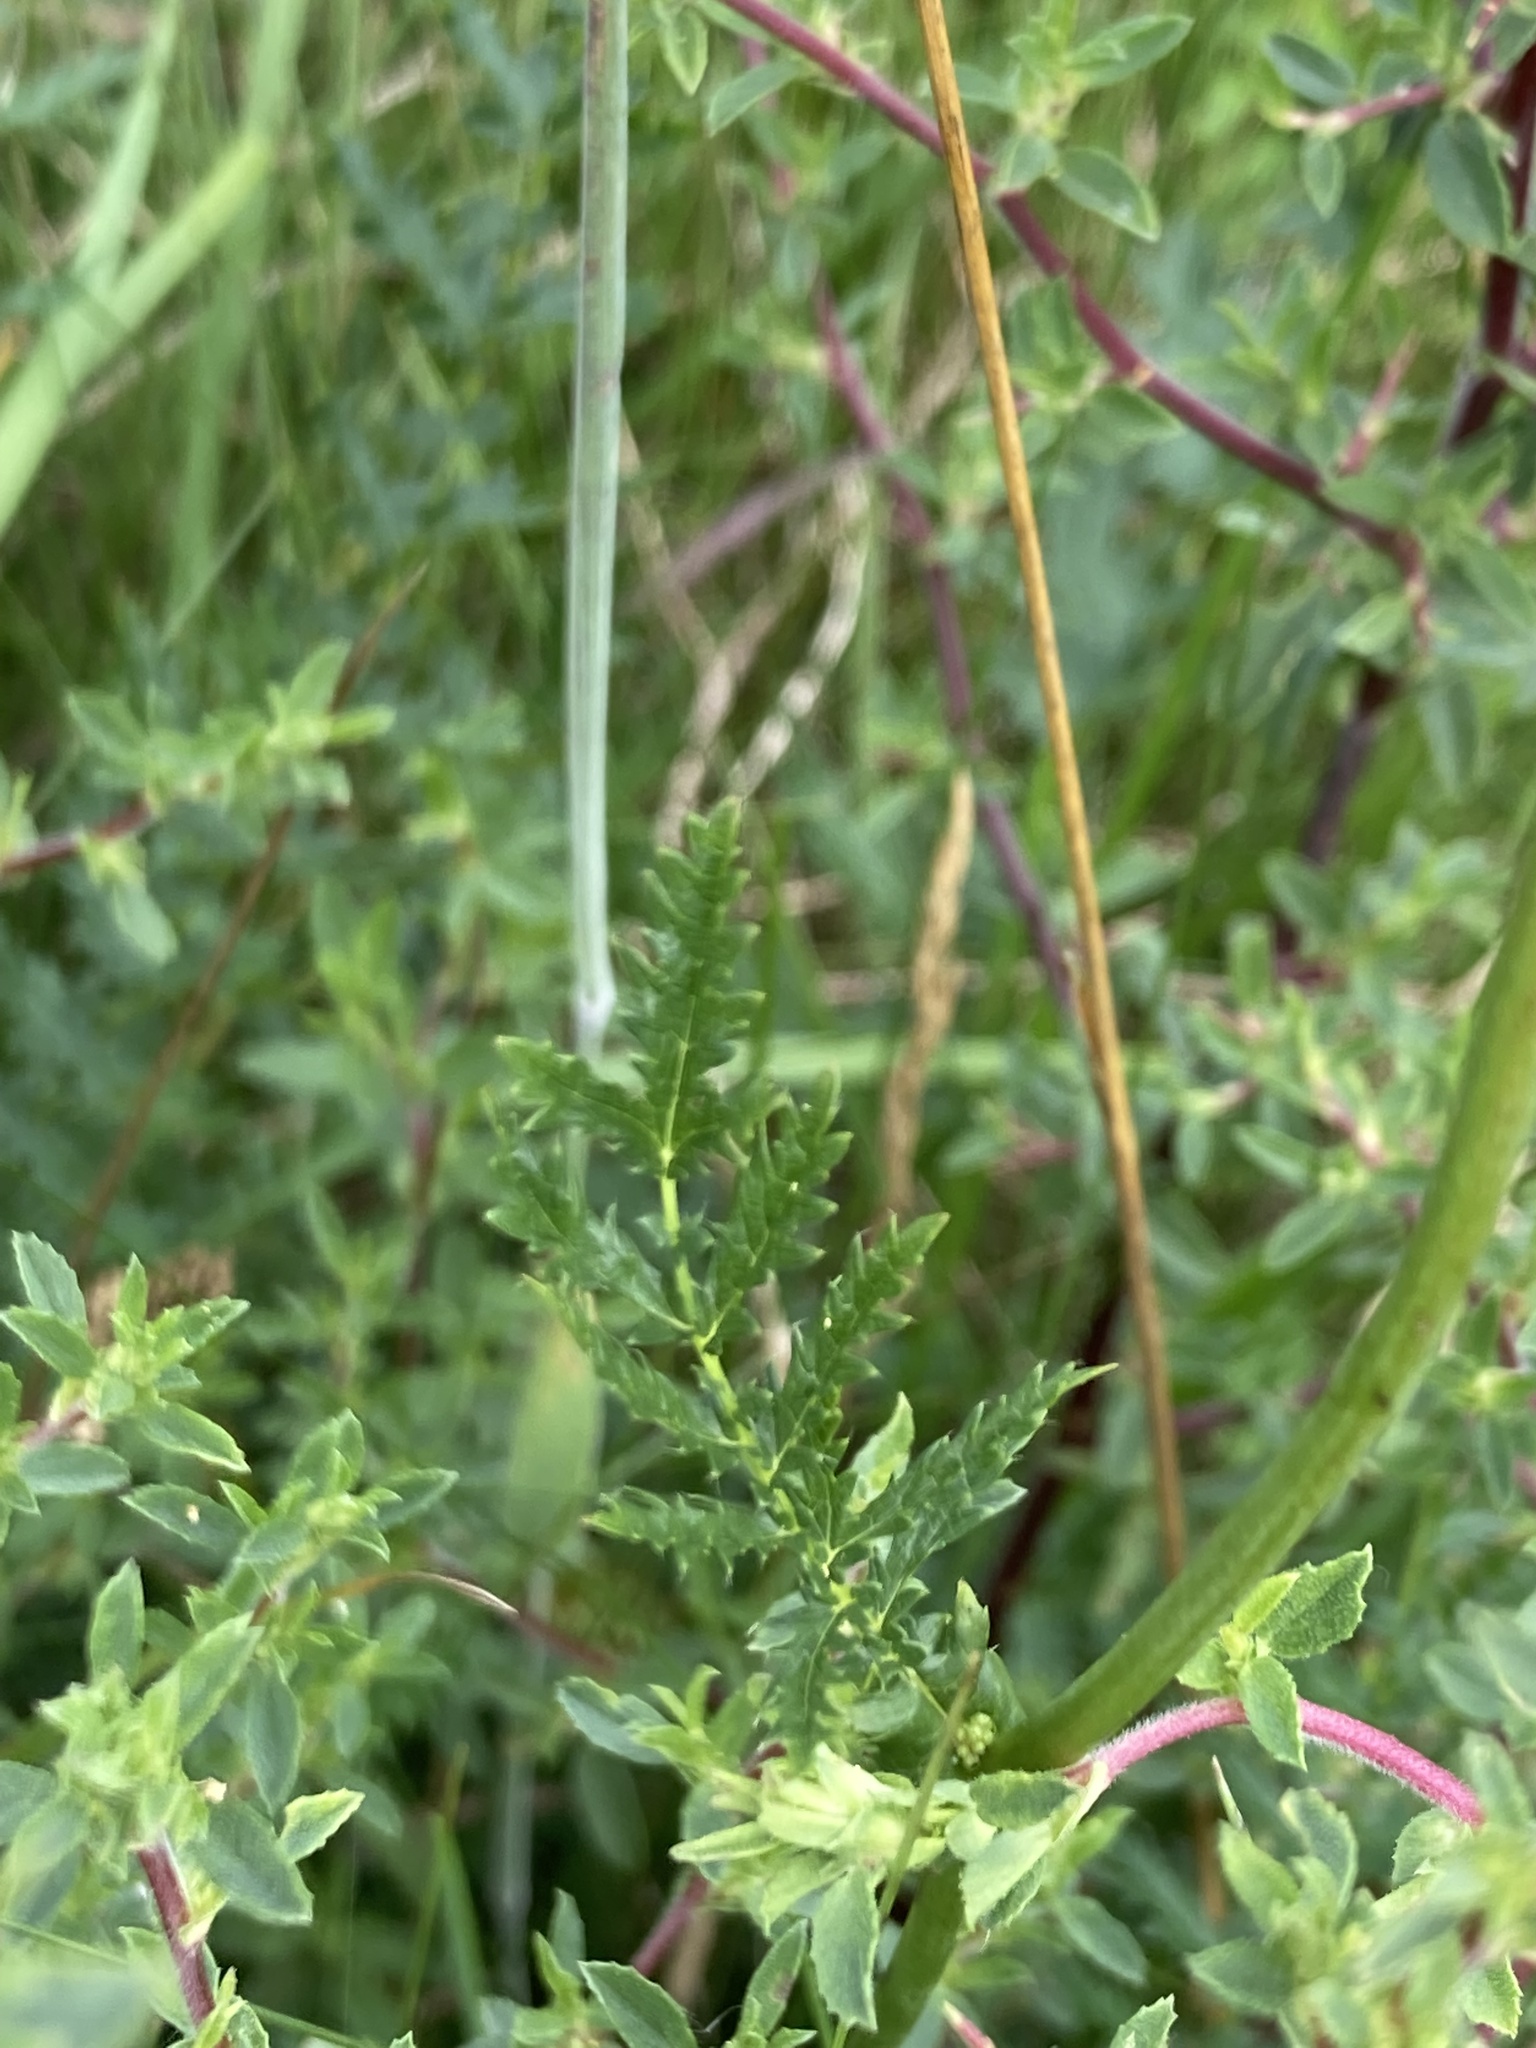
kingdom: Plantae
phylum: Tracheophyta
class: Magnoliopsida
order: Rosales
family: Rosaceae
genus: Filipendula
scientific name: Filipendula vulgaris
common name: Dropwort
